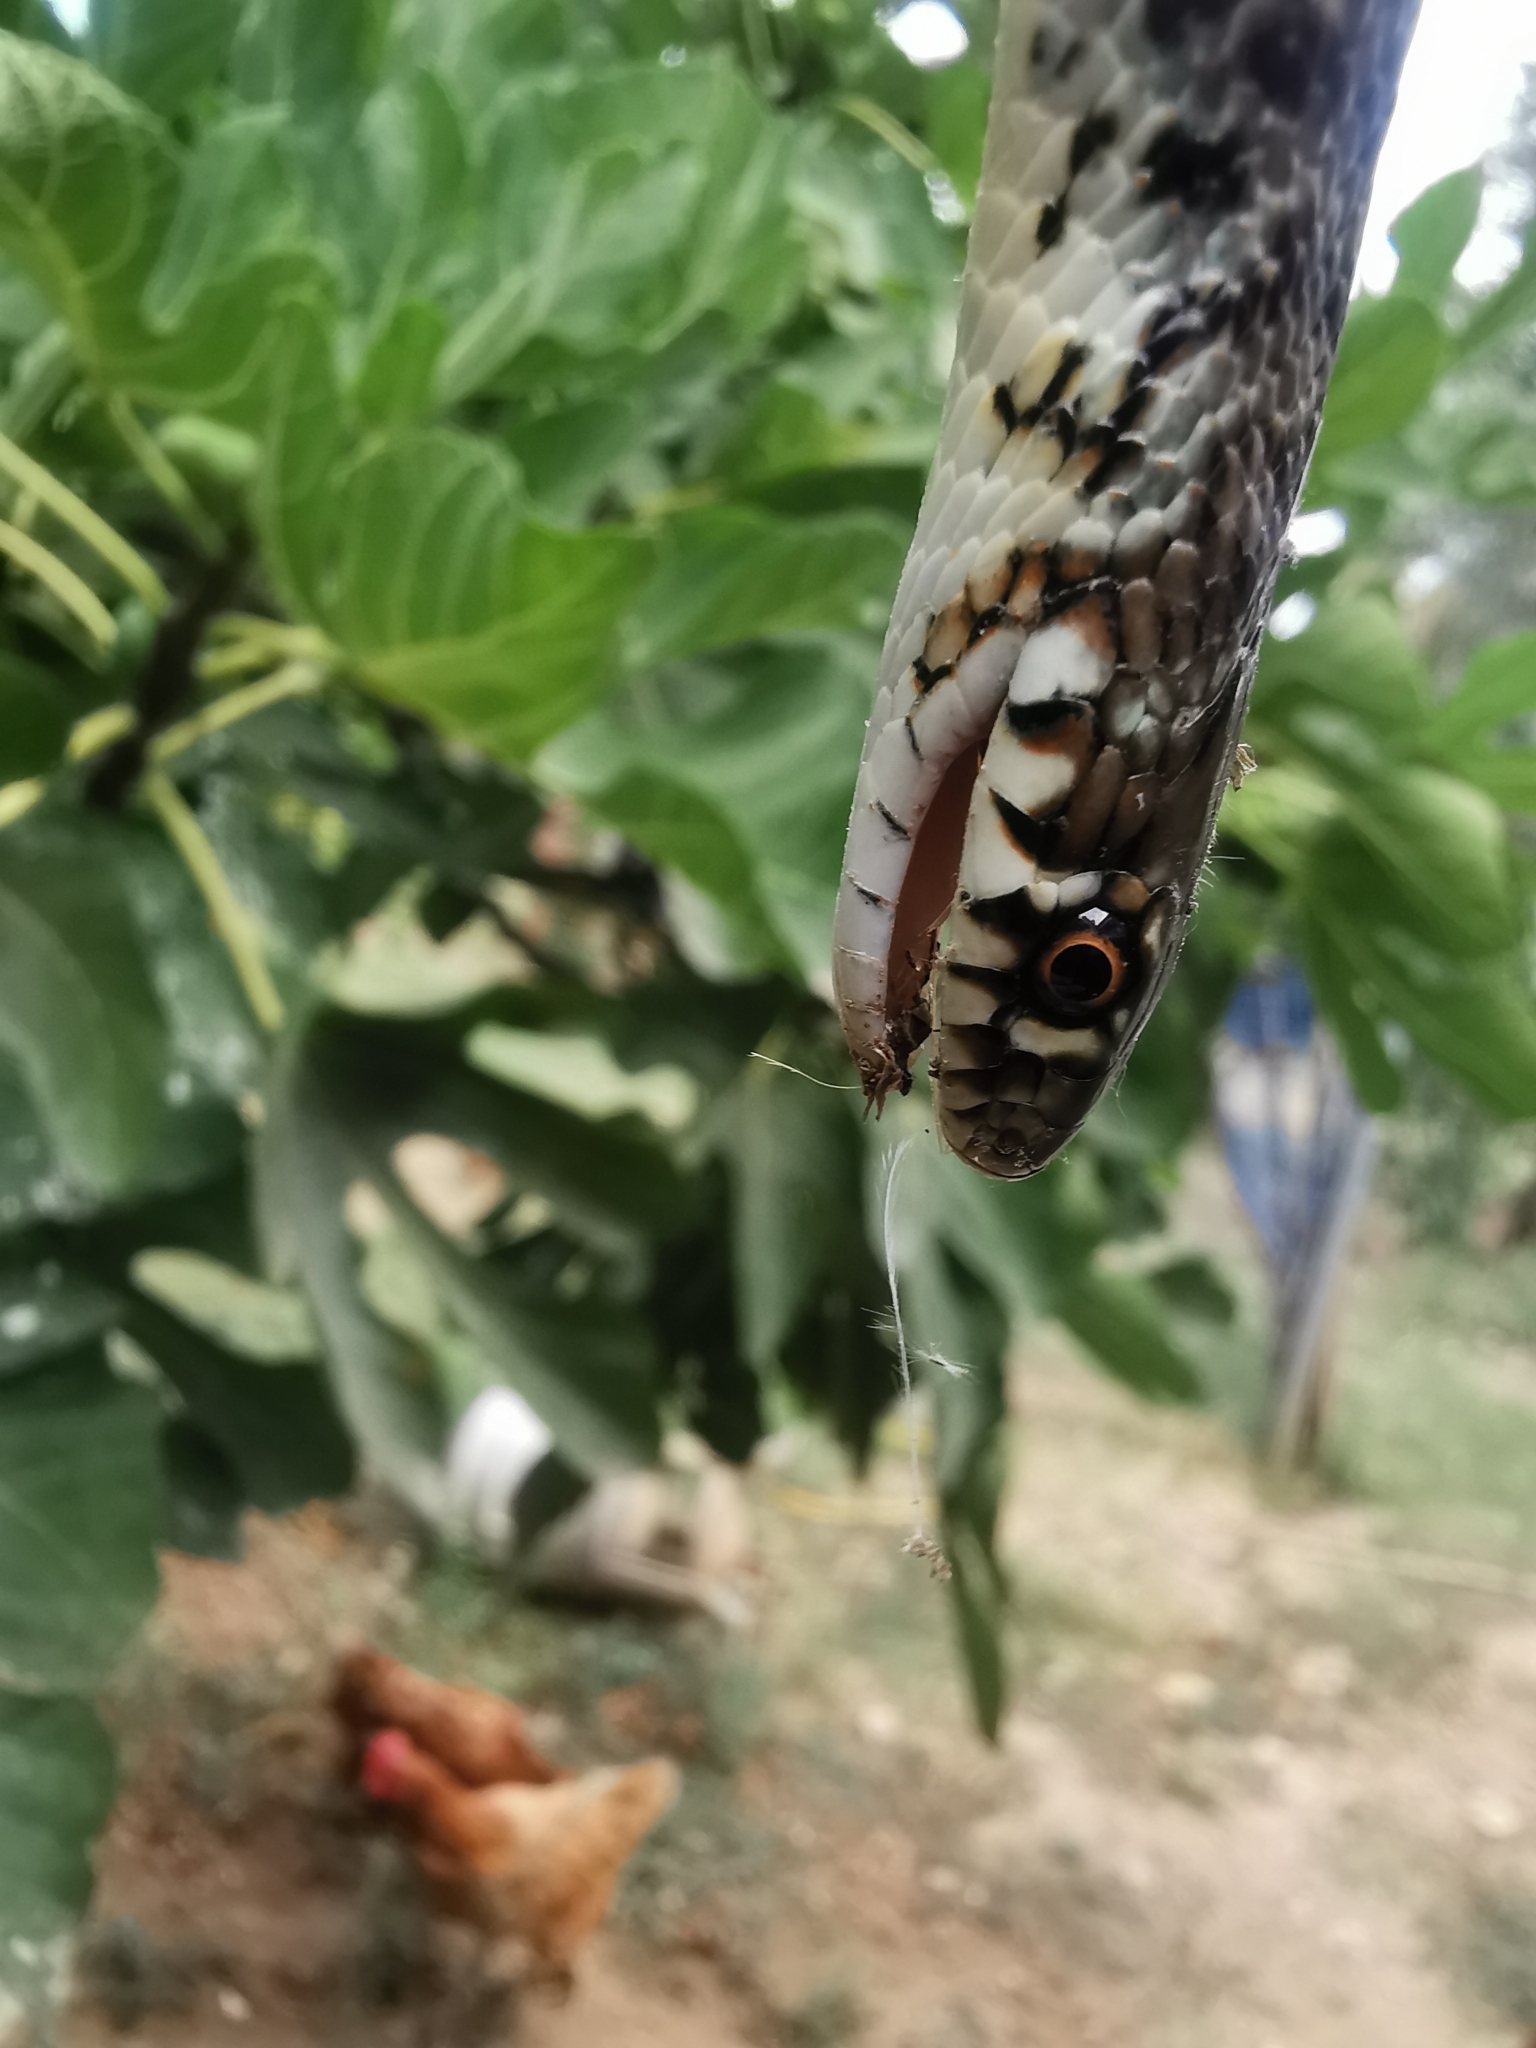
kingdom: Animalia
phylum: Chordata
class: Squamata
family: Colubridae
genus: Hierophis
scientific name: Hierophis gemonensis
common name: Balkan whip snake
